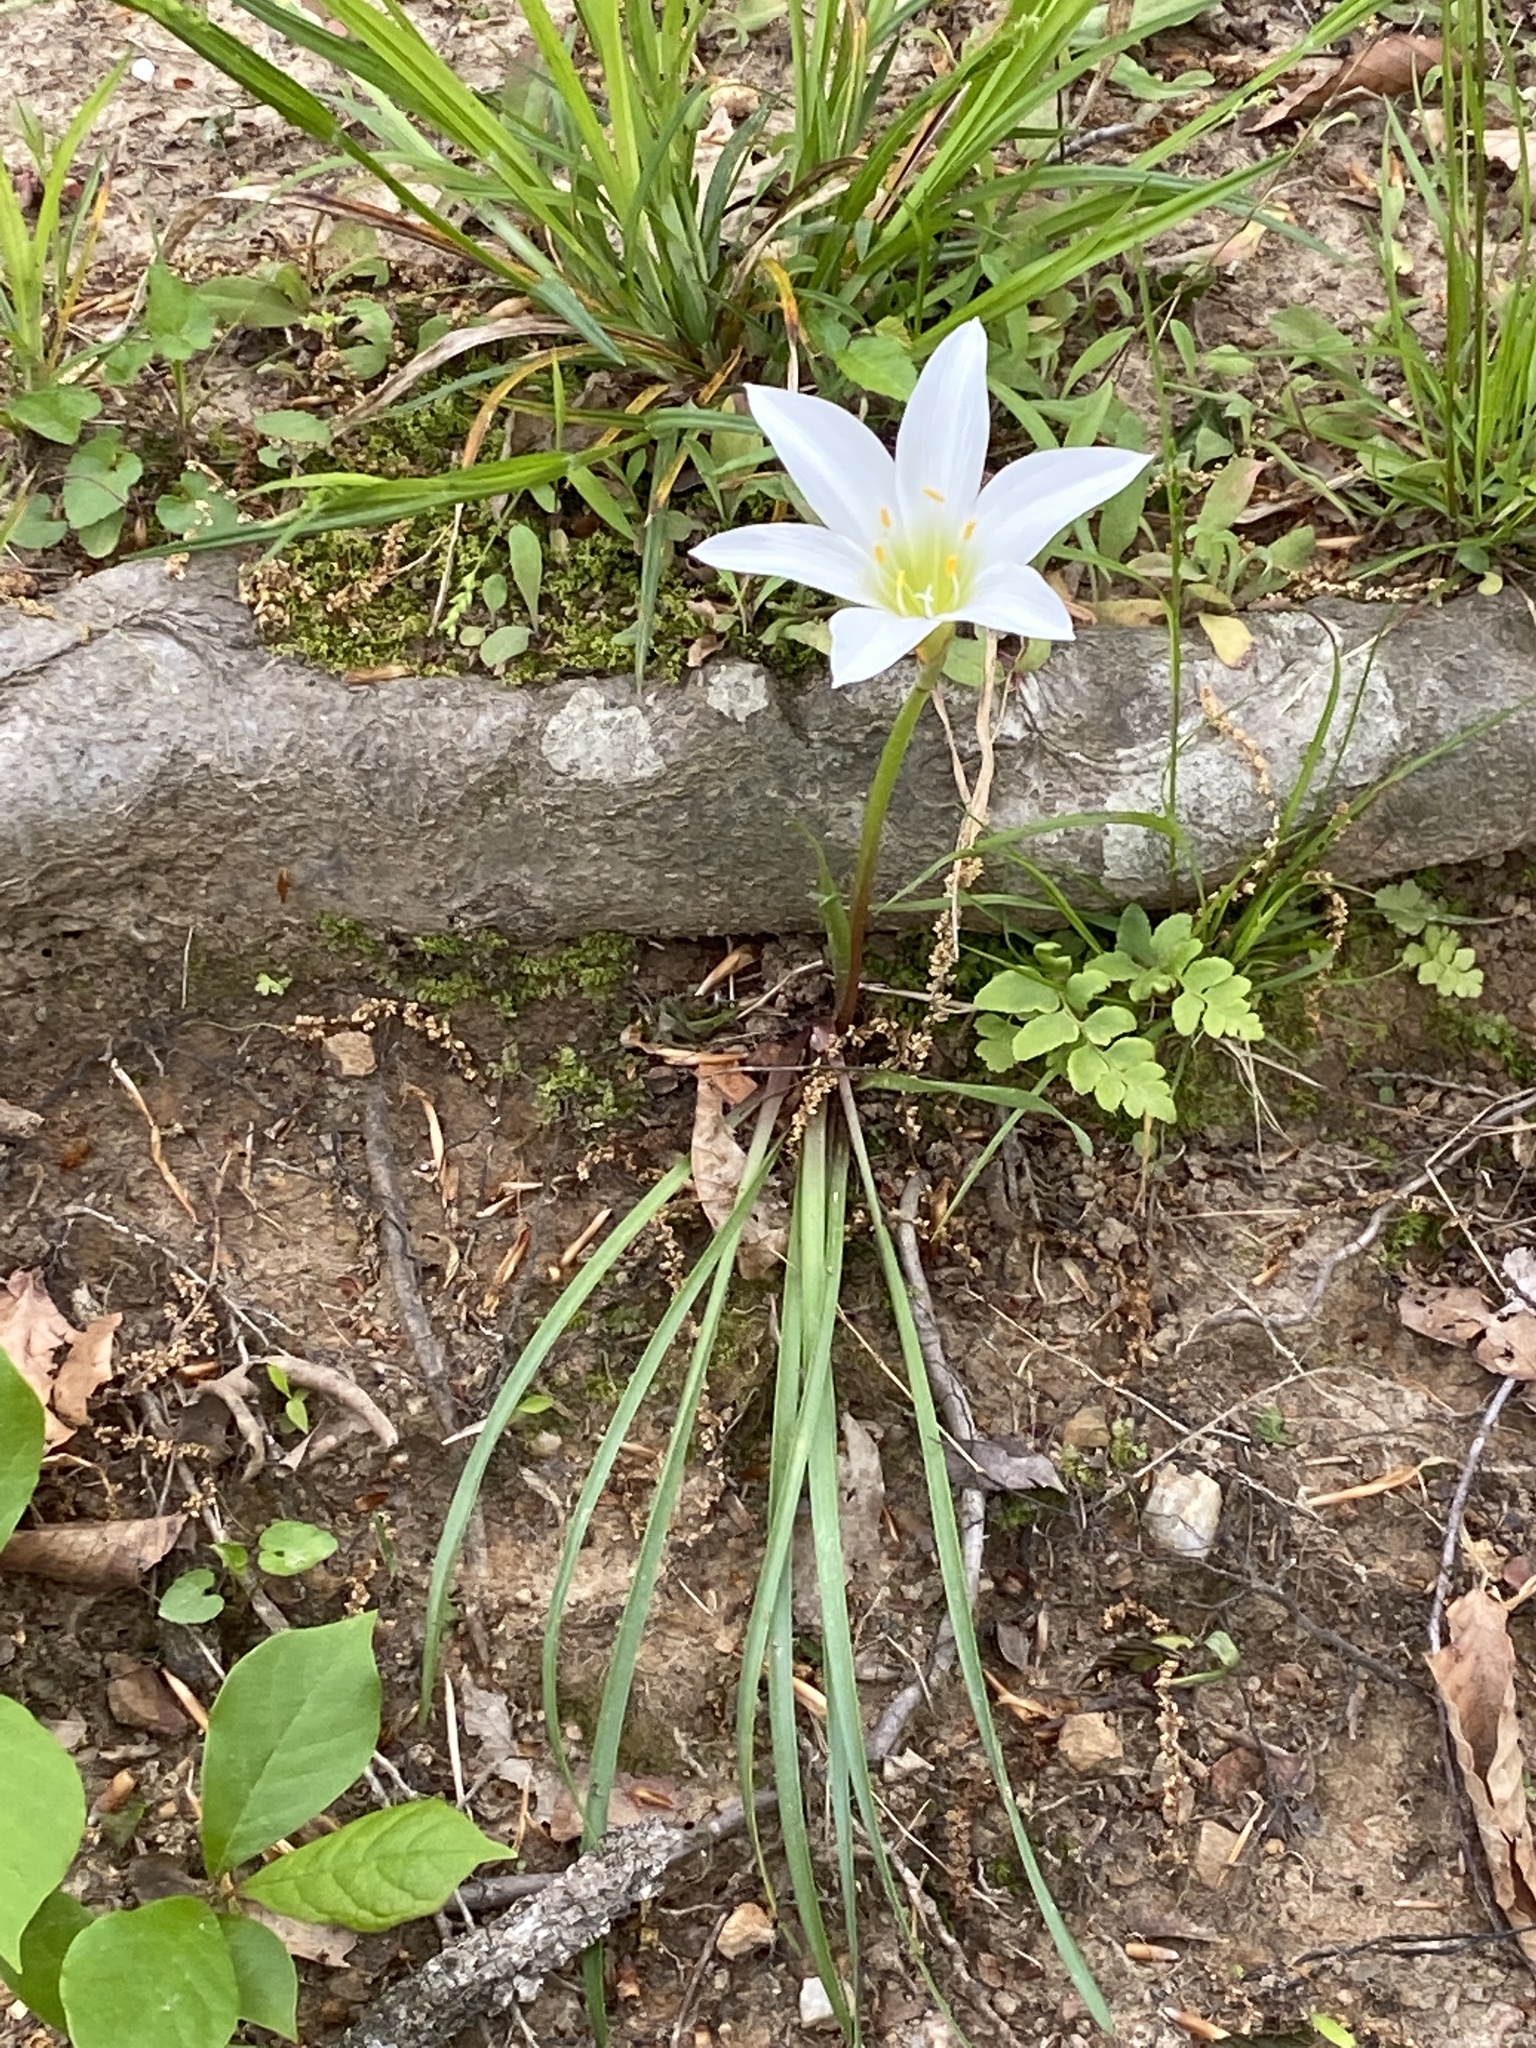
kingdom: Plantae
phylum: Tracheophyta
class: Liliopsida
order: Asparagales
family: Amaryllidaceae
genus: Zephyranthes
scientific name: Zephyranthes atamasco
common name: Atamasco lily
